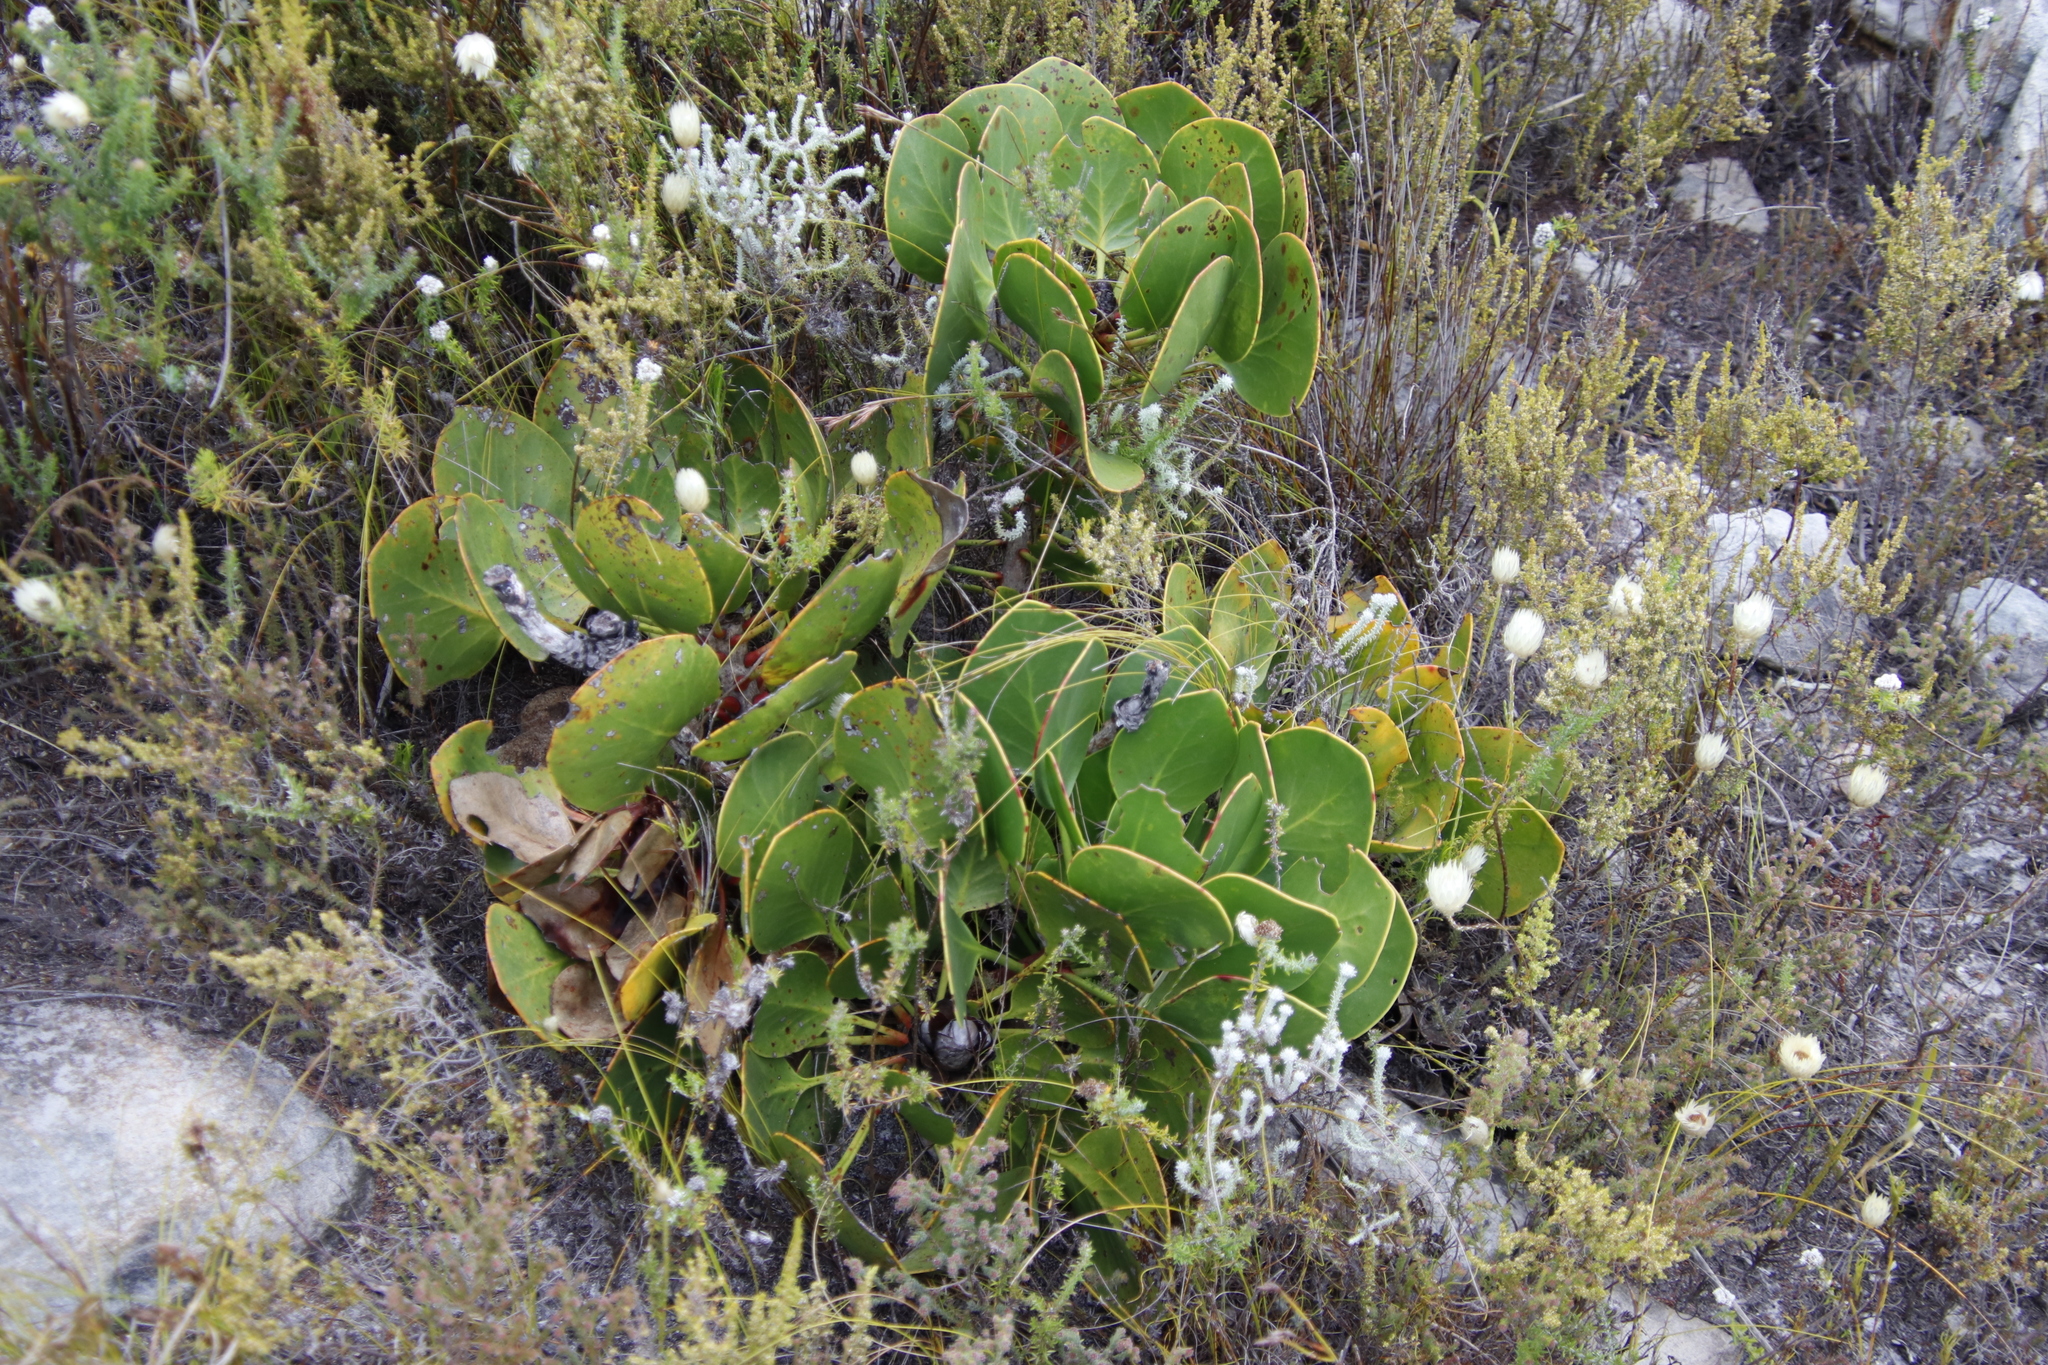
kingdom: Plantae
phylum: Tracheophyta
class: Magnoliopsida
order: Proteales
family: Proteaceae
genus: Protea
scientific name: Protea cynaroides
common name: King protea
